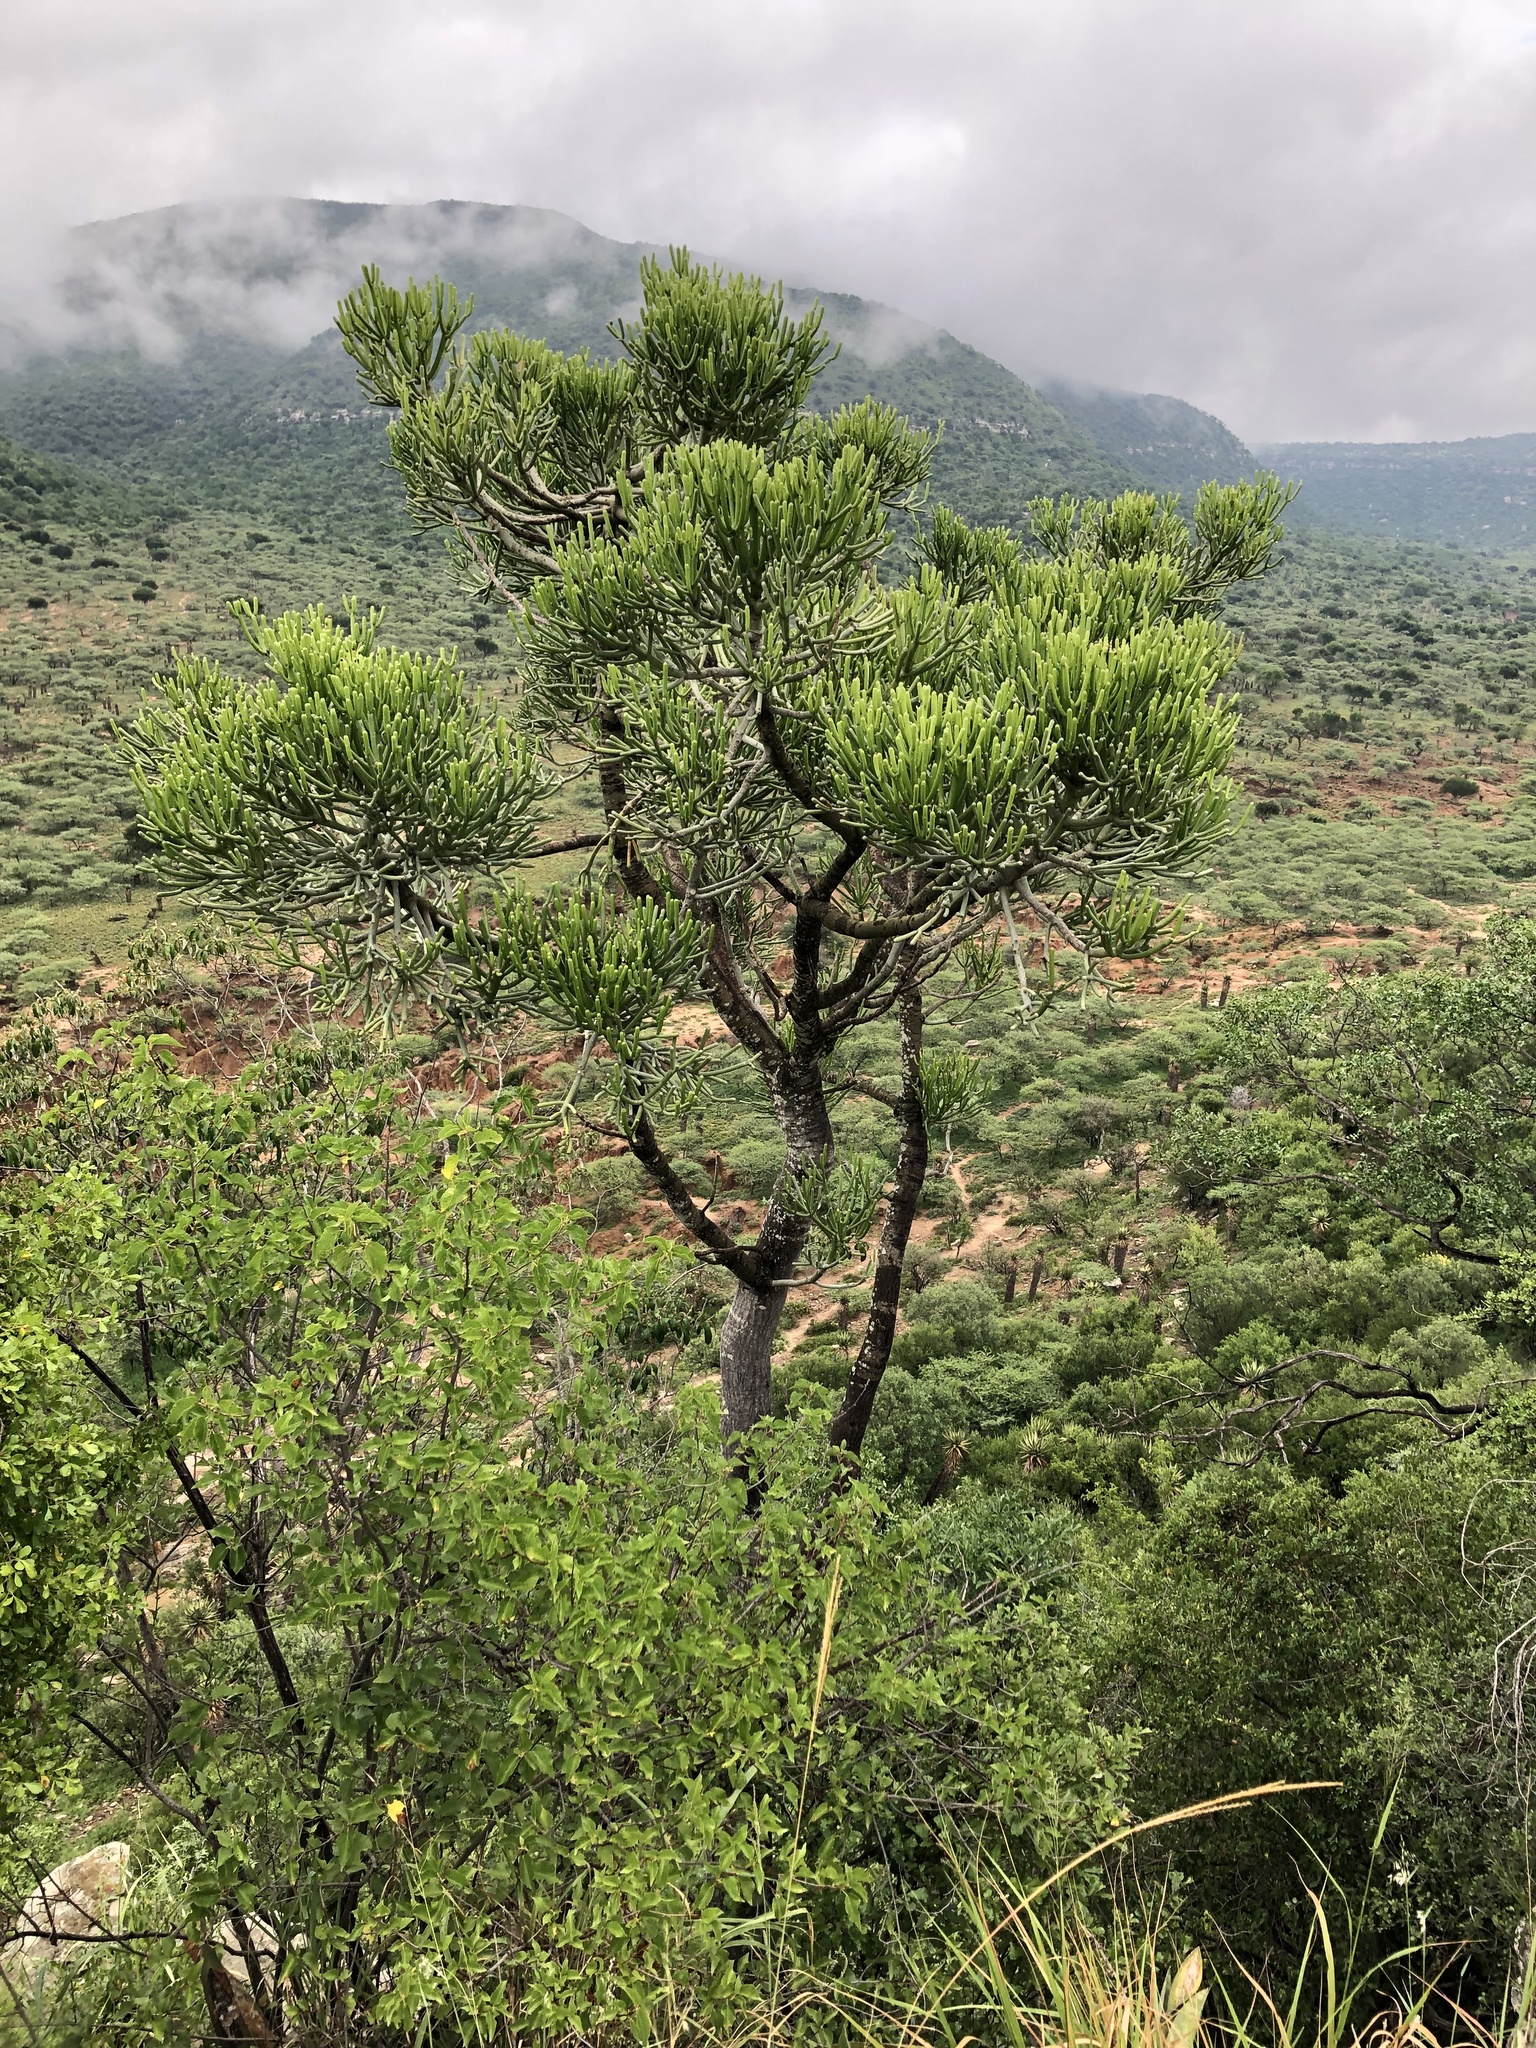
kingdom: Plantae
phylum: Tracheophyta
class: Magnoliopsida
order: Malpighiales
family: Euphorbiaceae
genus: Euphorbia
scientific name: Euphorbia tirucalli
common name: Indiantree spurge
